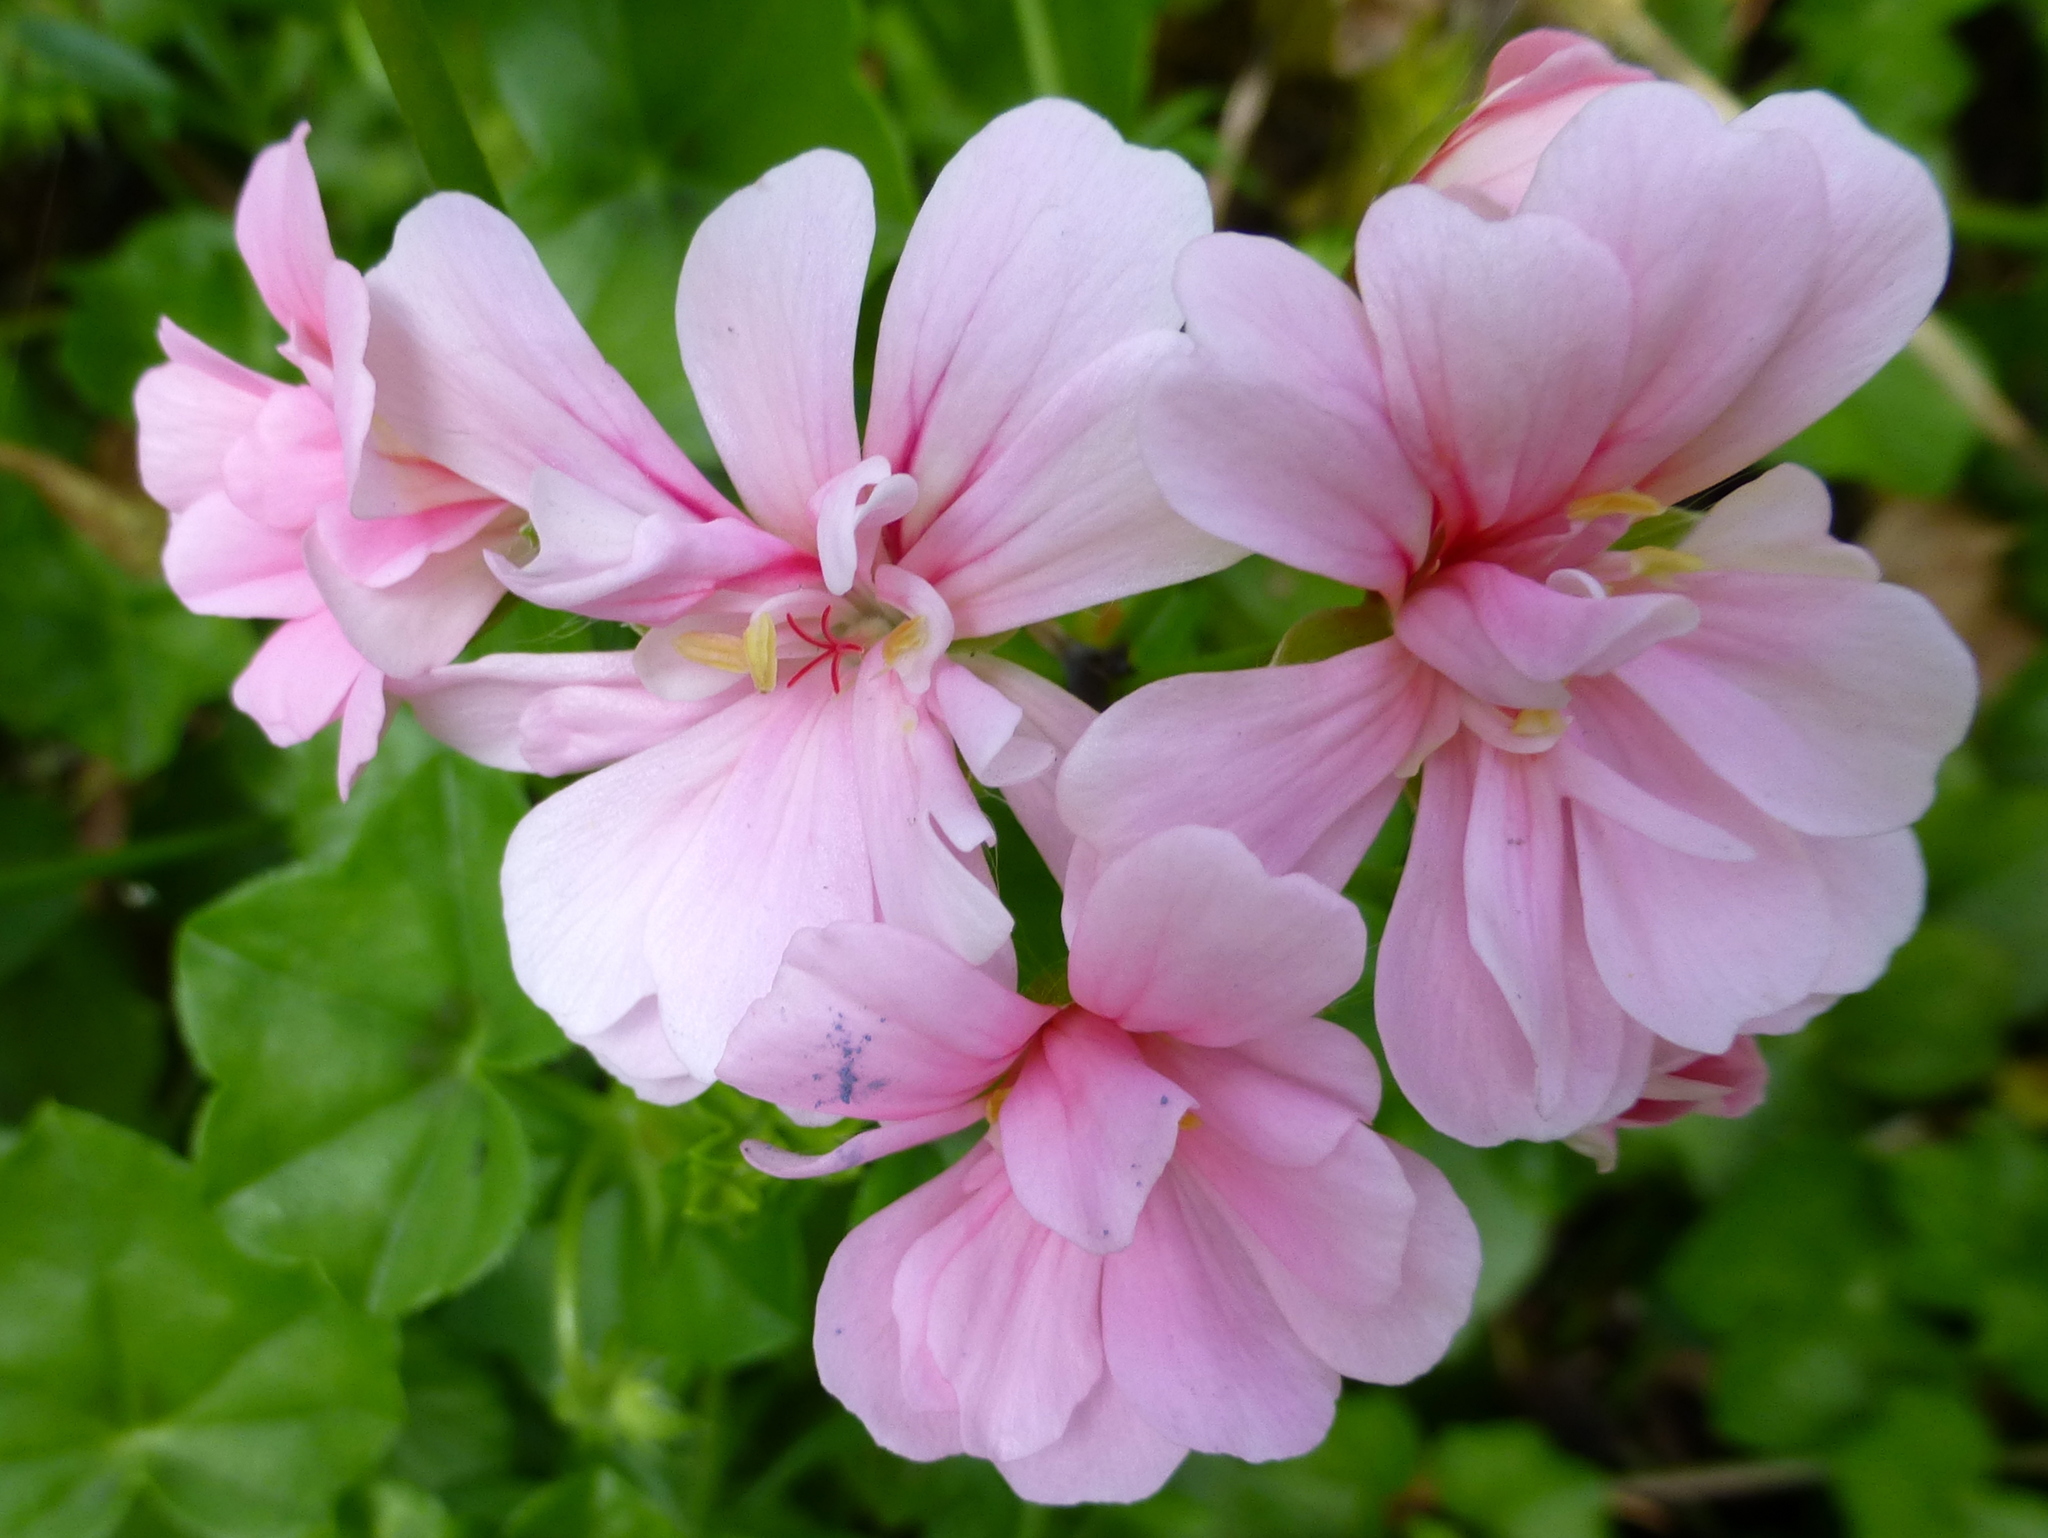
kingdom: Plantae
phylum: Tracheophyta
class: Magnoliopsida
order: Geraniales
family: Geraniaceae
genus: Pelargonium
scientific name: Pelargonium hybridum
